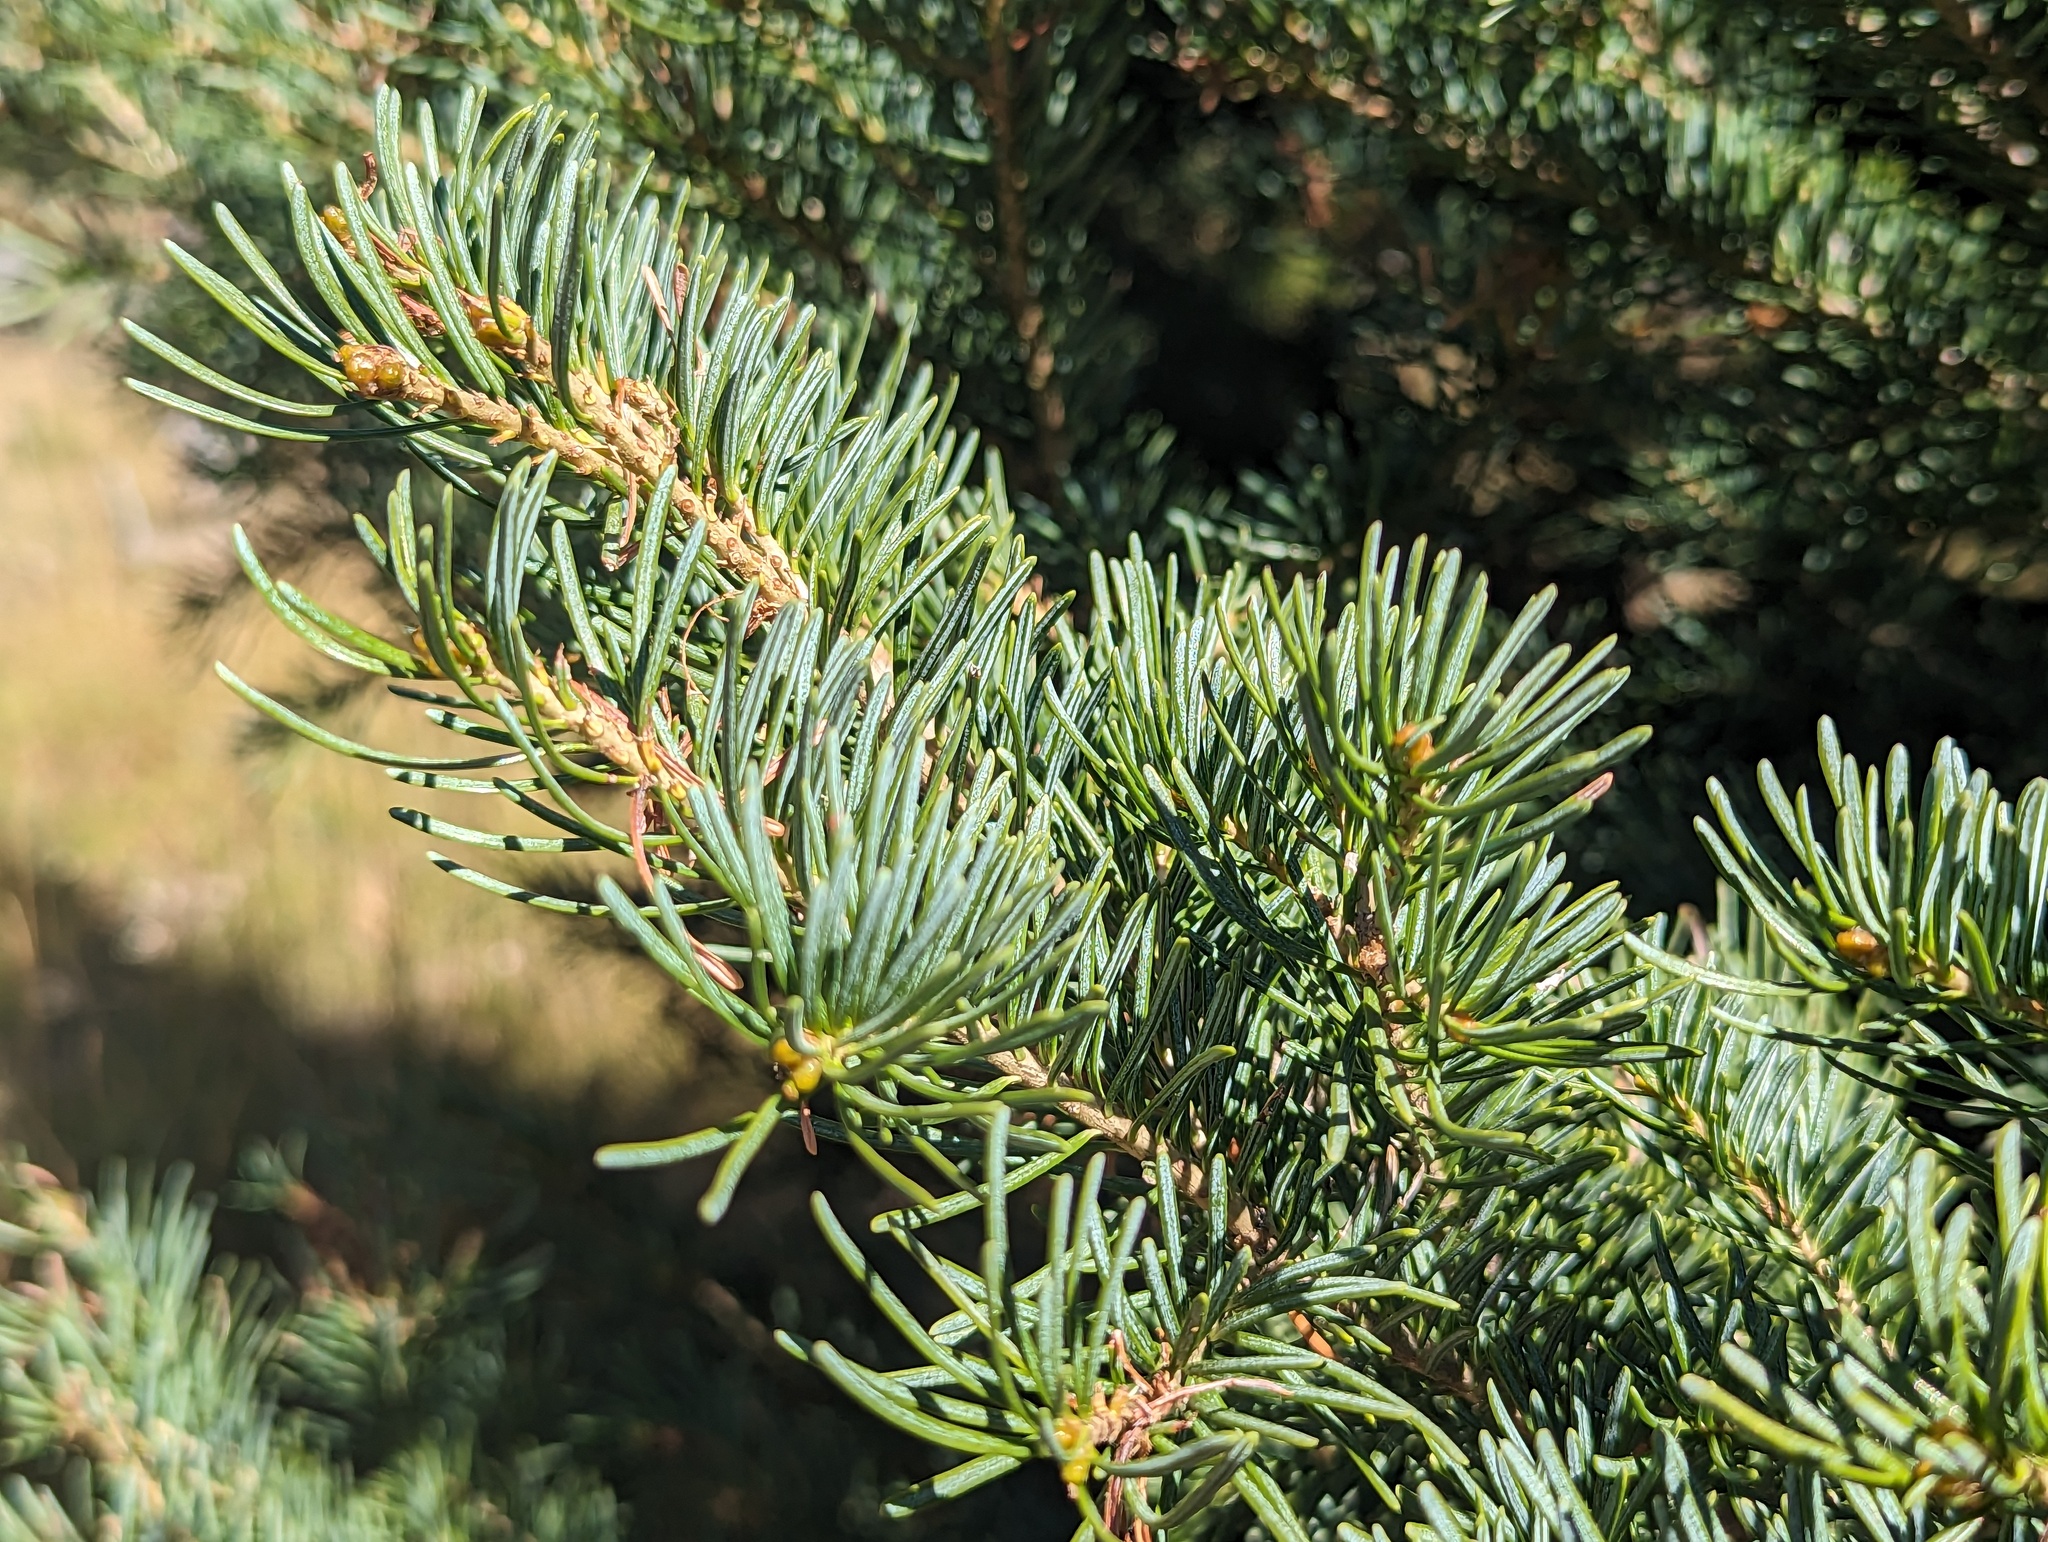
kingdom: Plantae
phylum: Tracheophyta
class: Pinopsida
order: Pinales
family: Pinaceae
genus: Abies
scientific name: Abies lasiocarpa
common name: Subalpine fir
